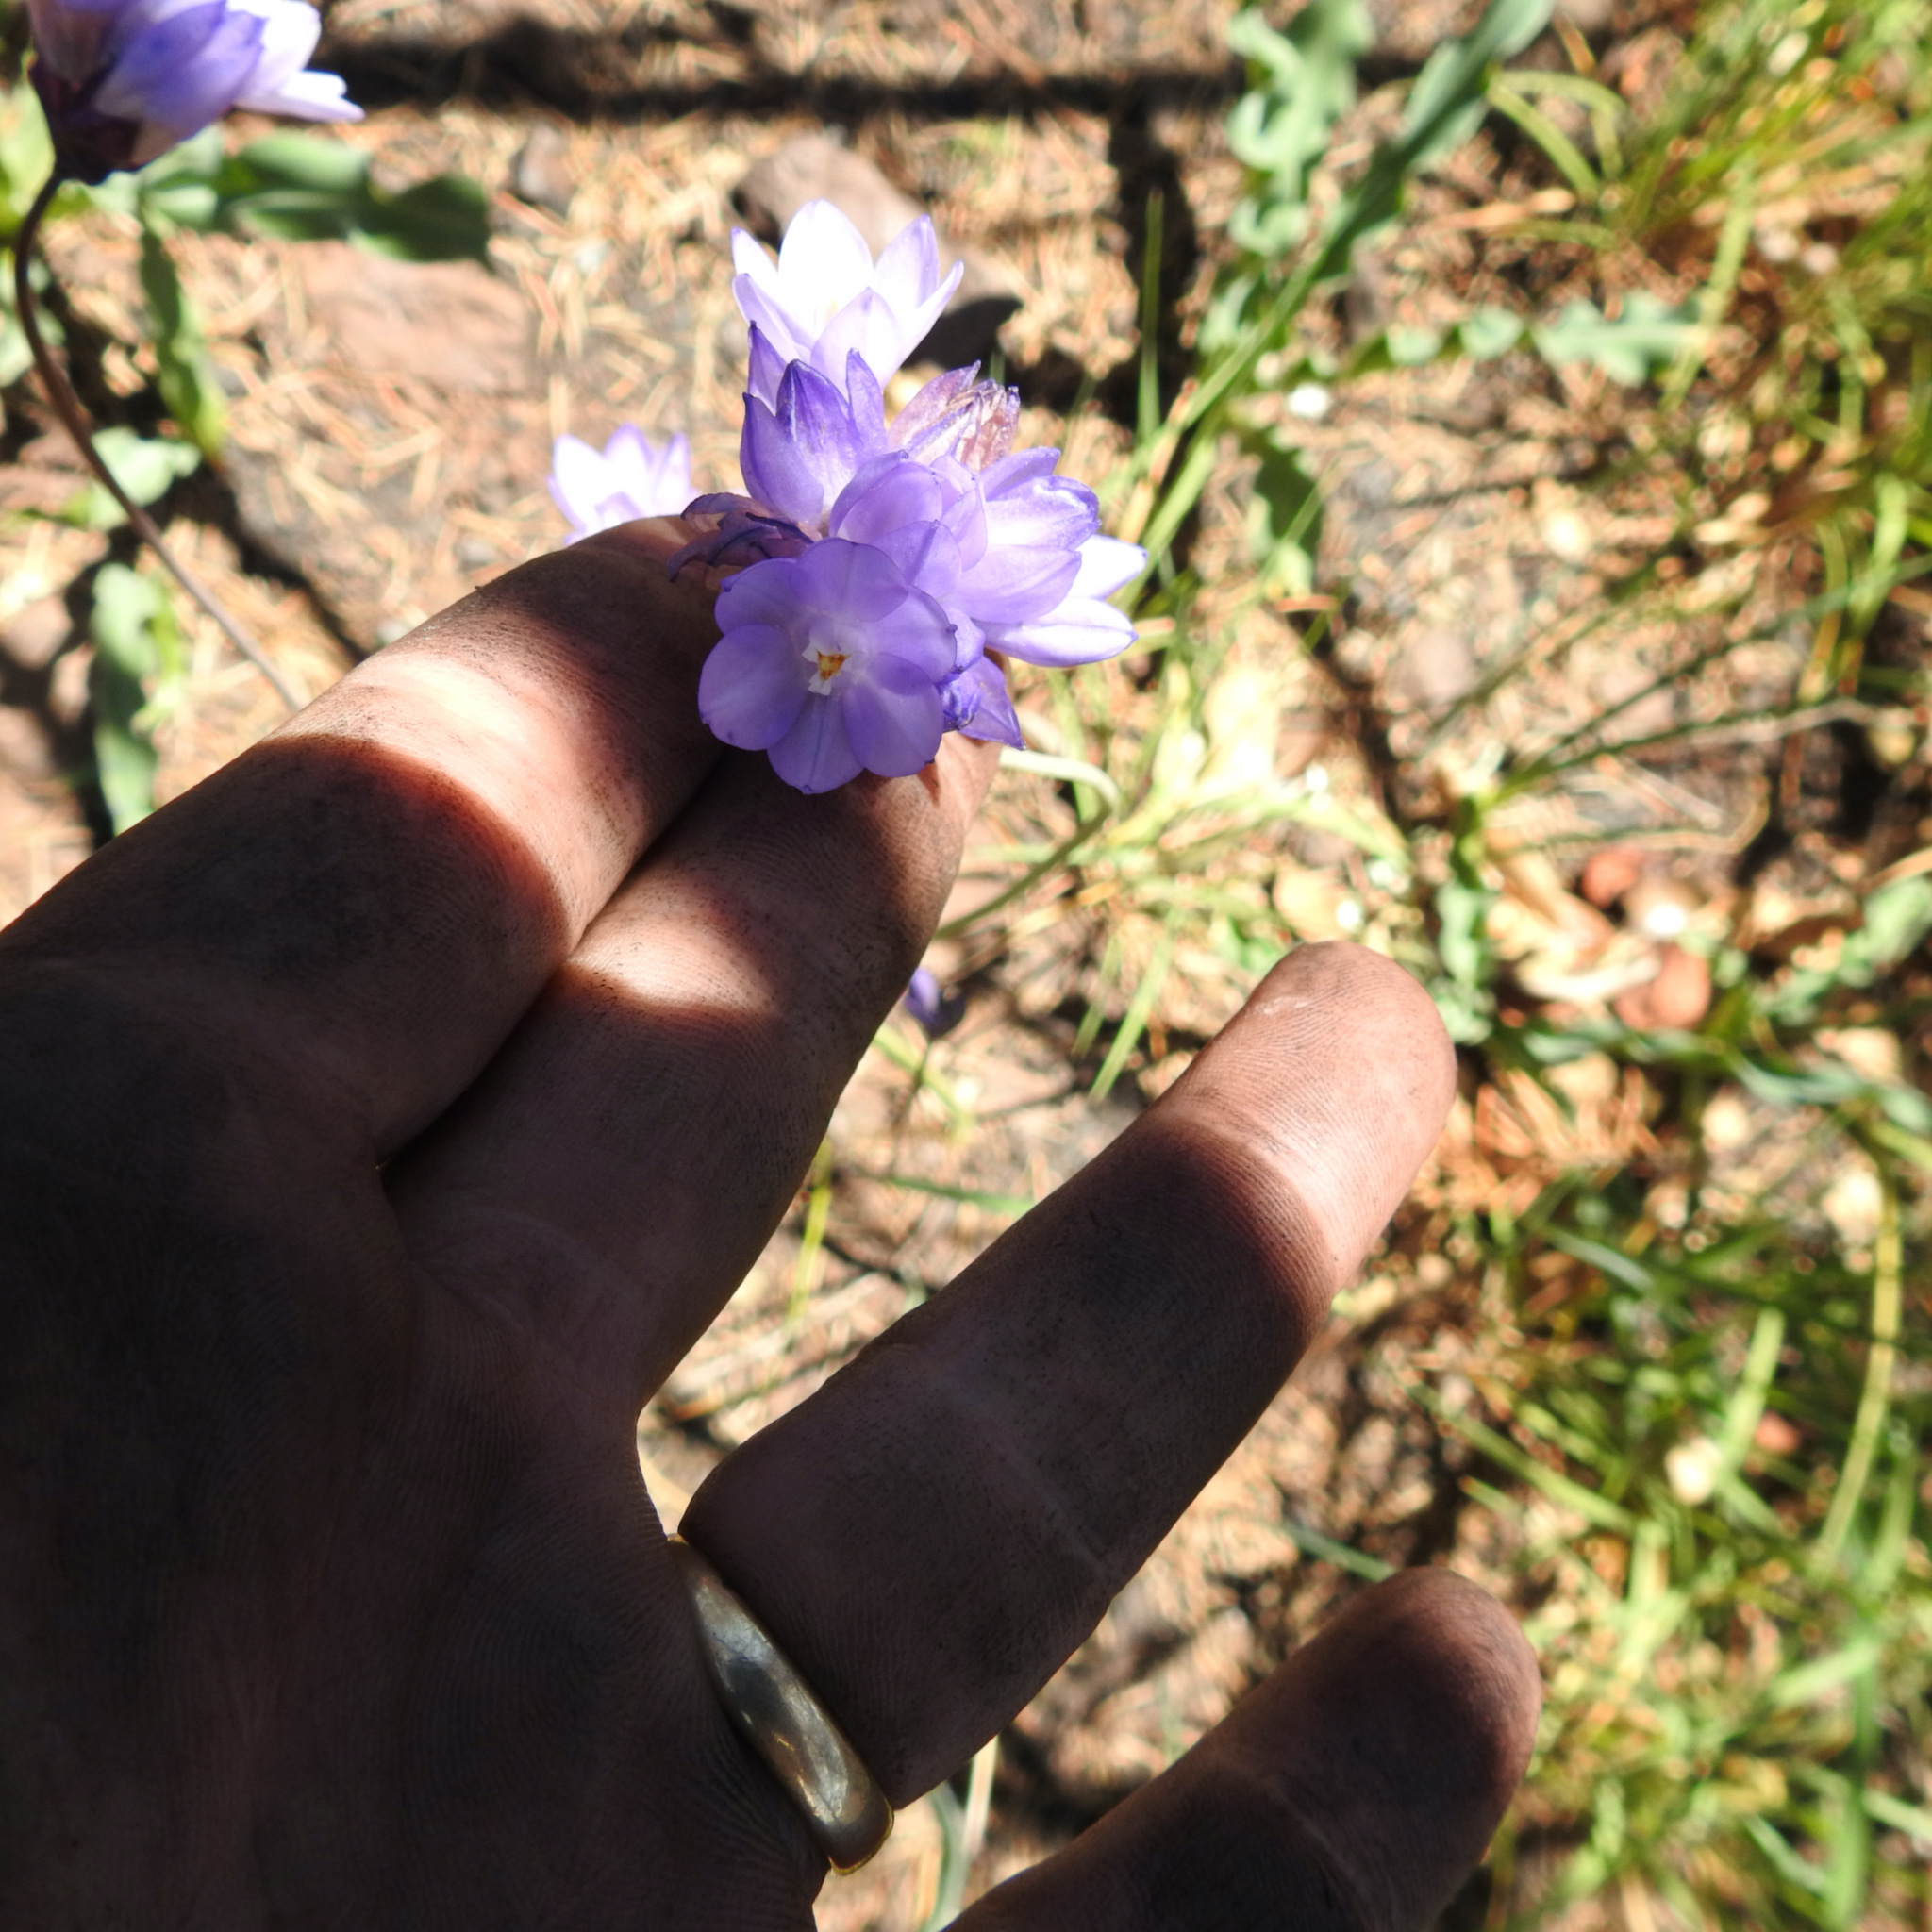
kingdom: Plantae
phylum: Tracheophyta
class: Liliopsida
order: Asparagales
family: Asparagaceae
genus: Dipterostemon
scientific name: Dipterostemon capitatus
